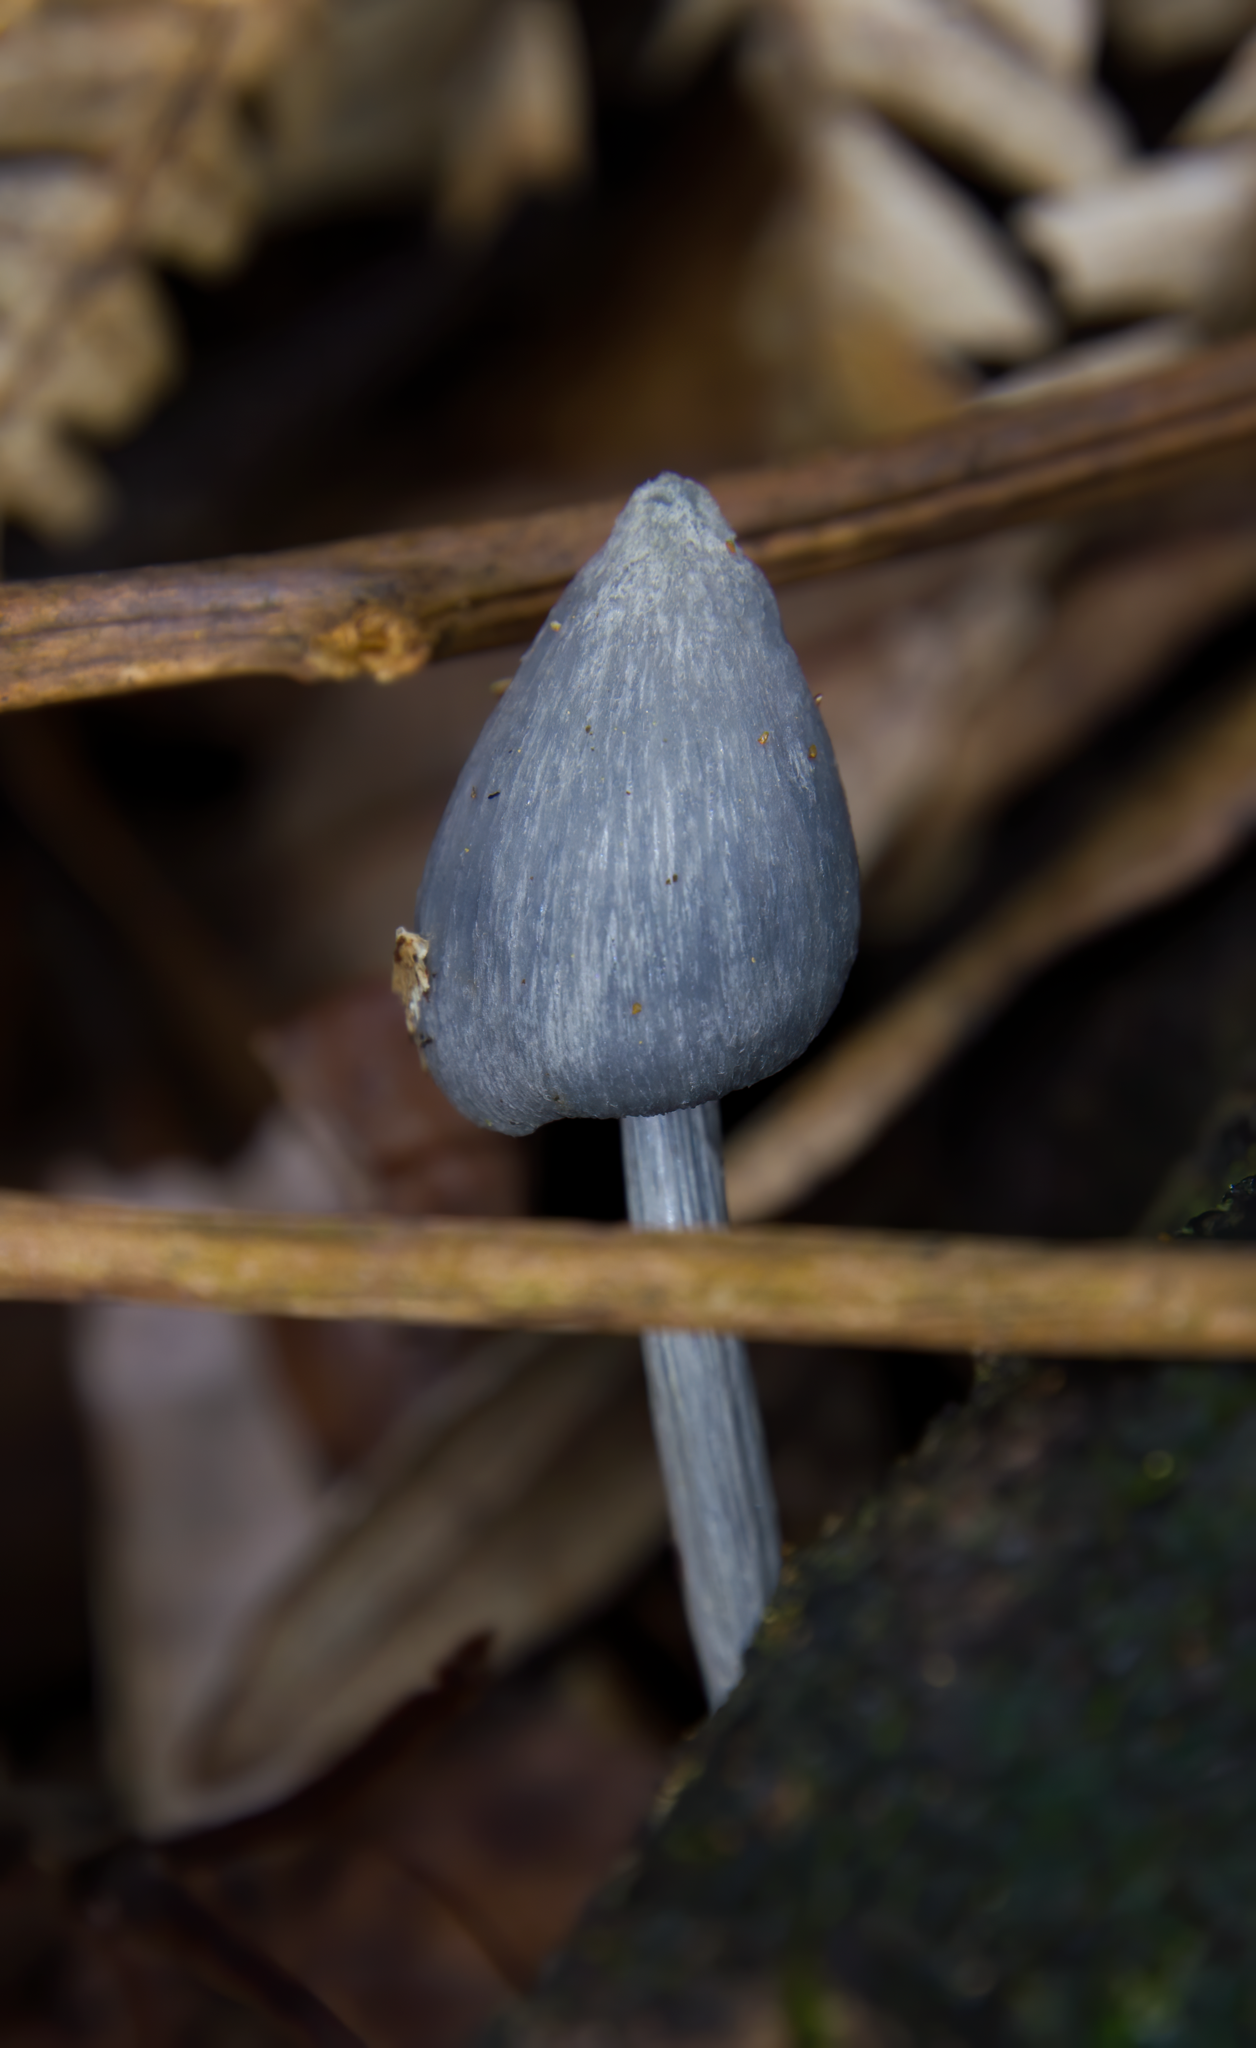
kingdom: Fungi
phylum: Basidiomycota
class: Agaricomycetes
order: Agaricales
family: Entolomataceae
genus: Entoloma
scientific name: Entoloma hochstetteri
